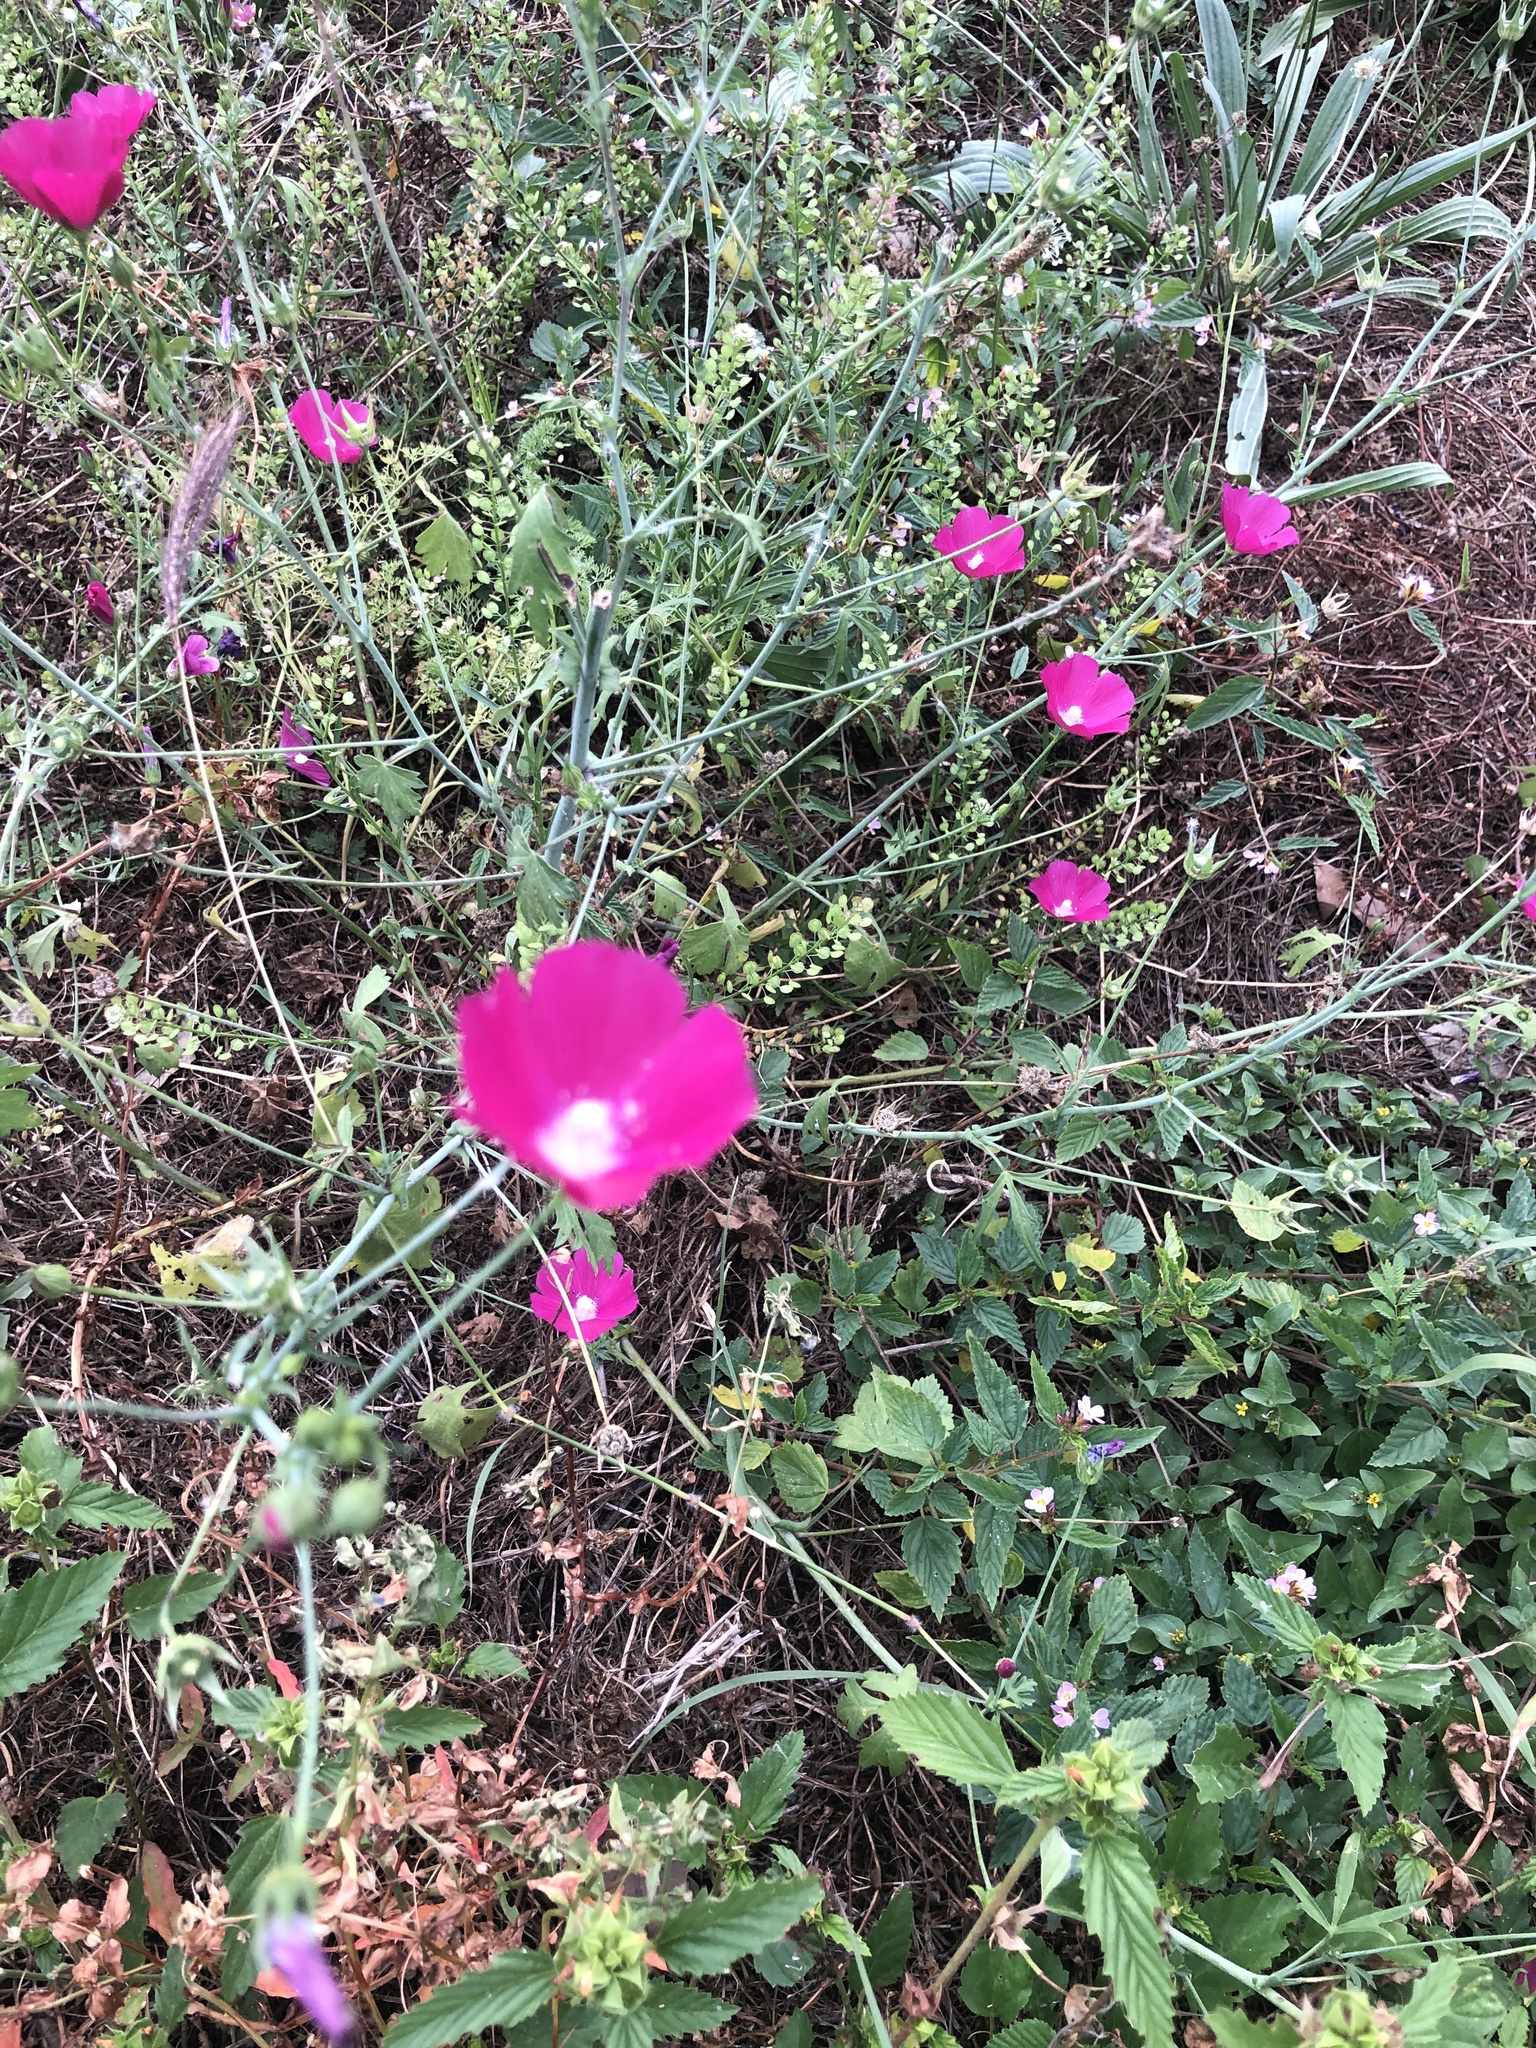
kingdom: Plantae
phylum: Tracheophyta
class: Magnoliopsida
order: Malvales
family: Malvaceae
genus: Callirhoe
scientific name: Callirhoe leiocarpa
